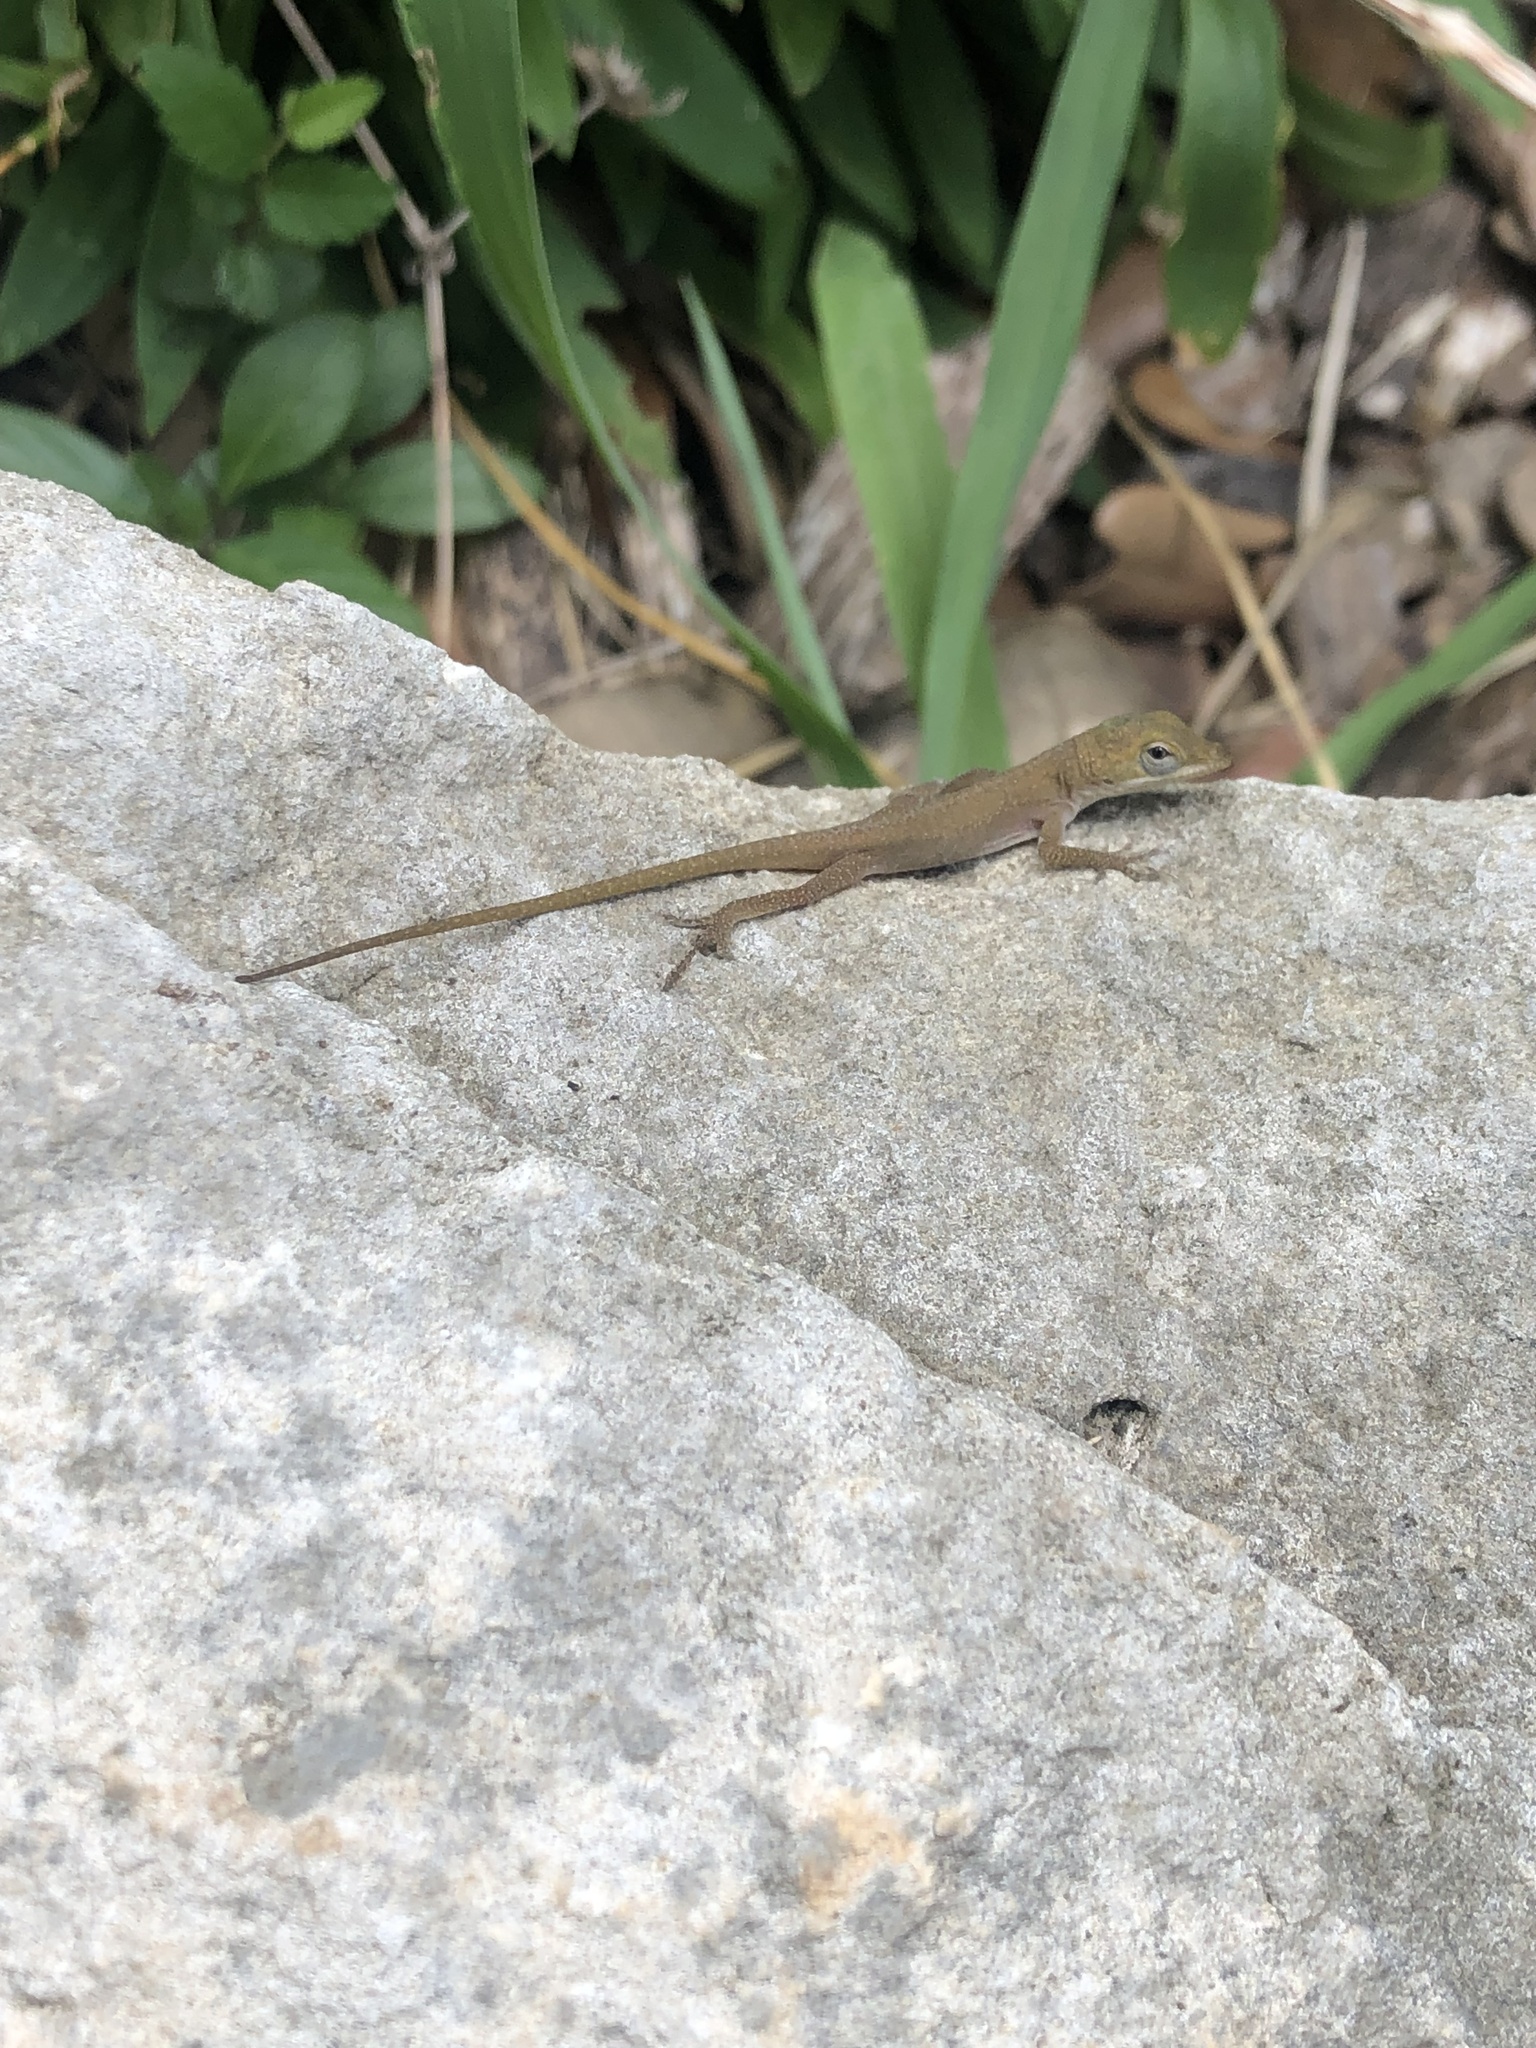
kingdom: Animalia
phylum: Chordata
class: Squamata
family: Dactyloidae
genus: Anolis
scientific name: Anolis carolinensis
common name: Green anole
